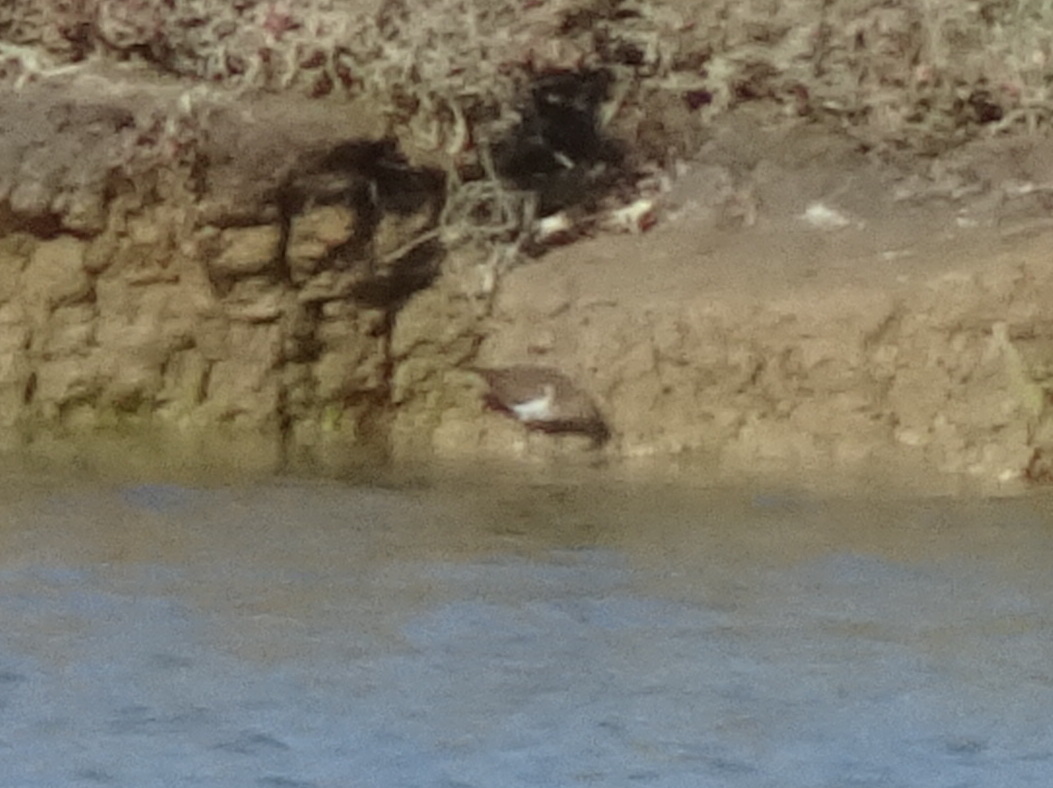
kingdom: Animalia
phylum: Chordata
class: Aves
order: Charadriiformes
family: Scolopacidae
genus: Actitis
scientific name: Actitis hypoleucos
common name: Common sandpiper
